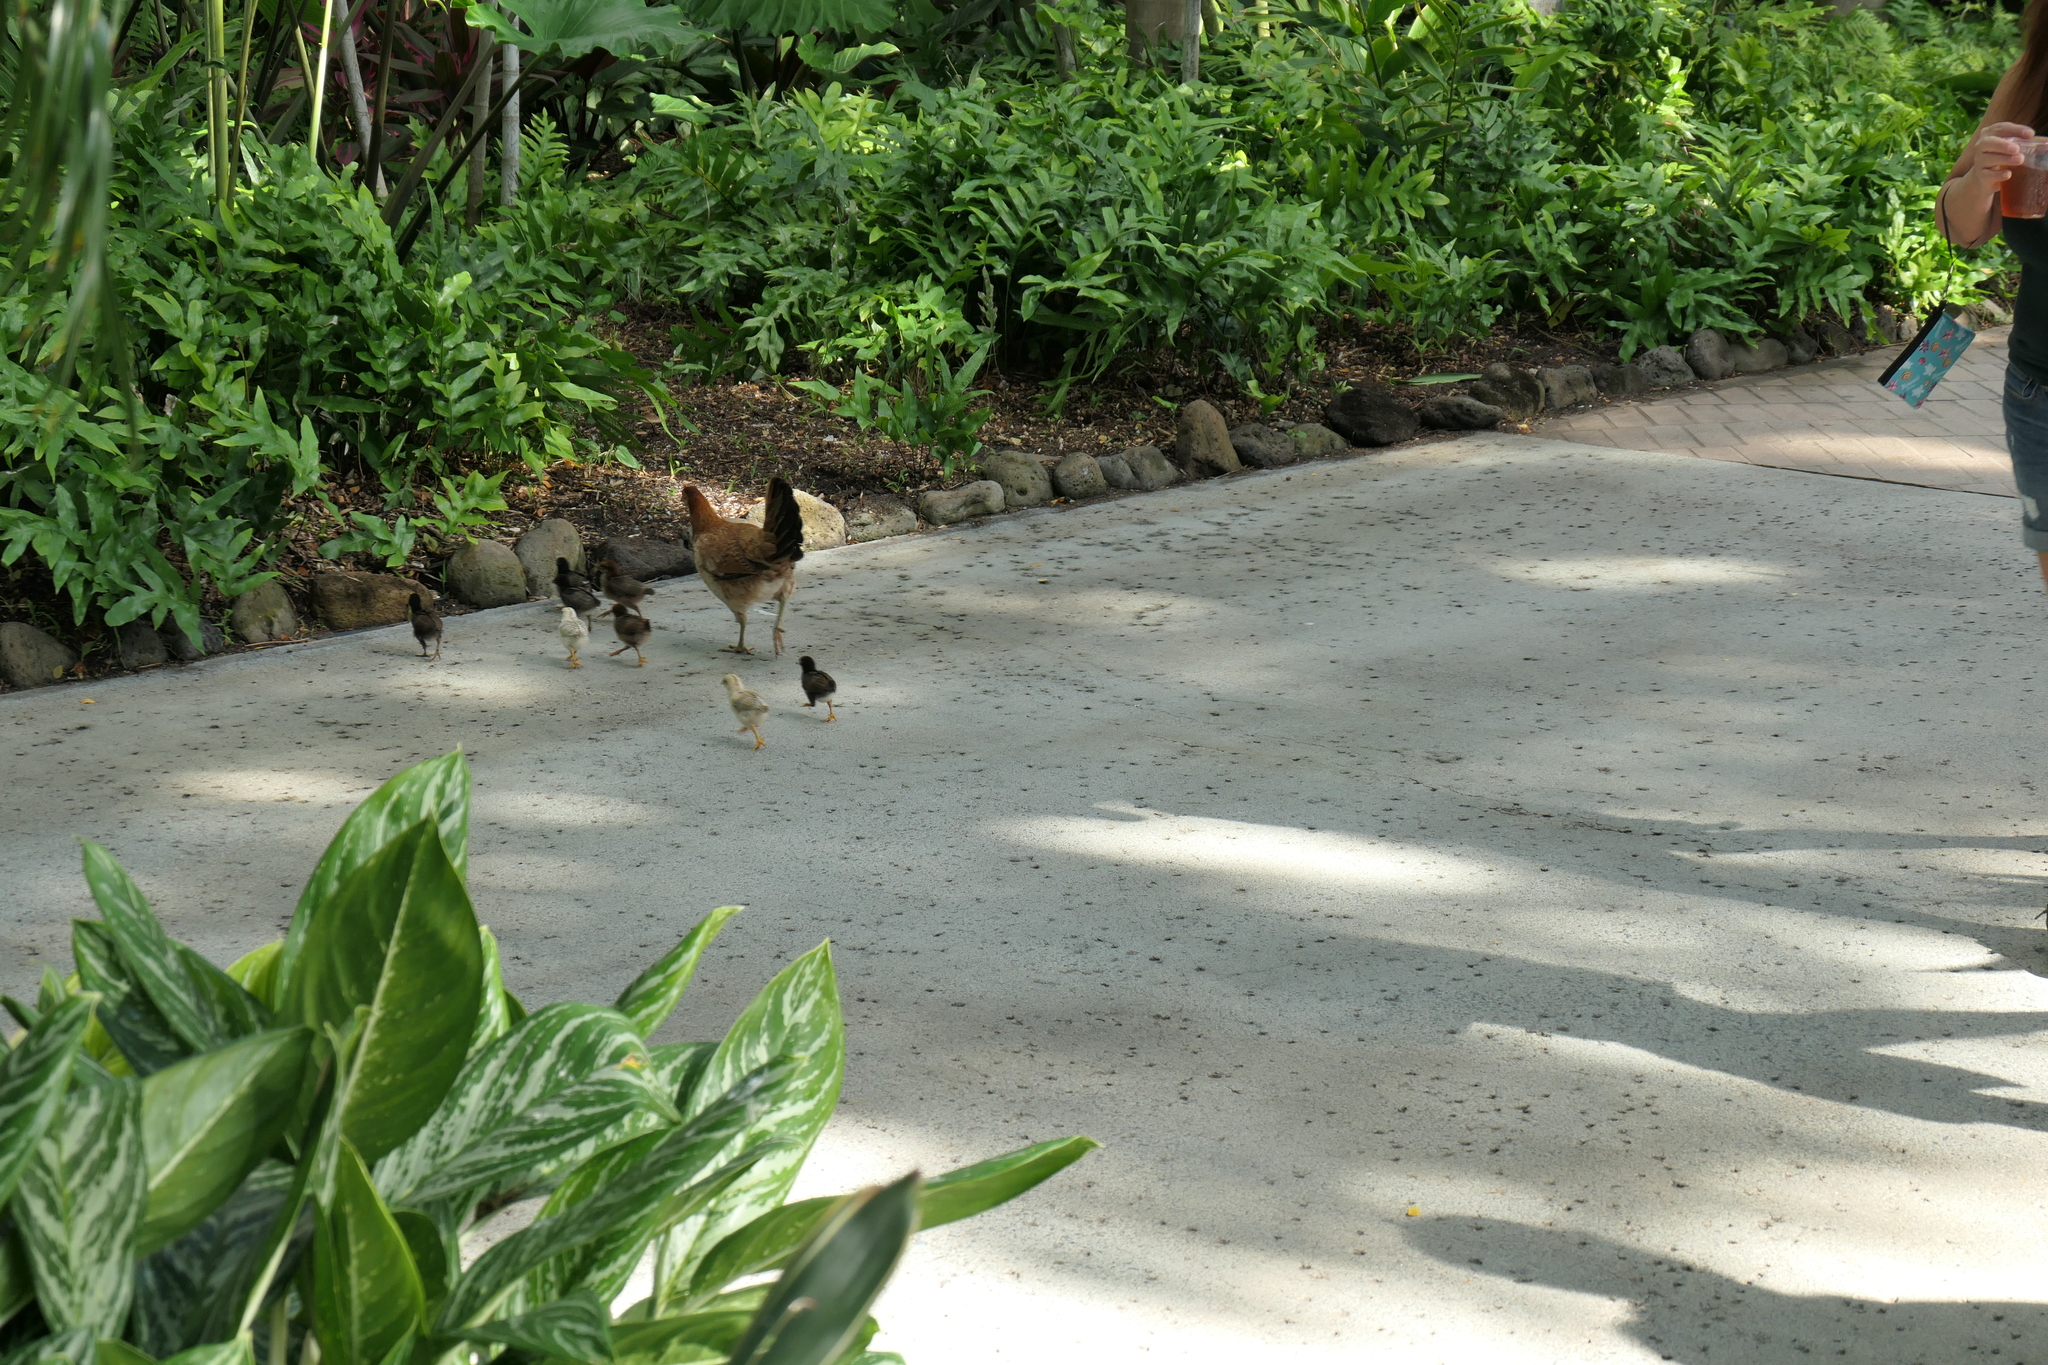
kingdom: Animalia
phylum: Chordata
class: Aves
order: Galliformes
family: Phasianidae
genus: Gallus
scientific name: Gallus gallus
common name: Red junglefowl
